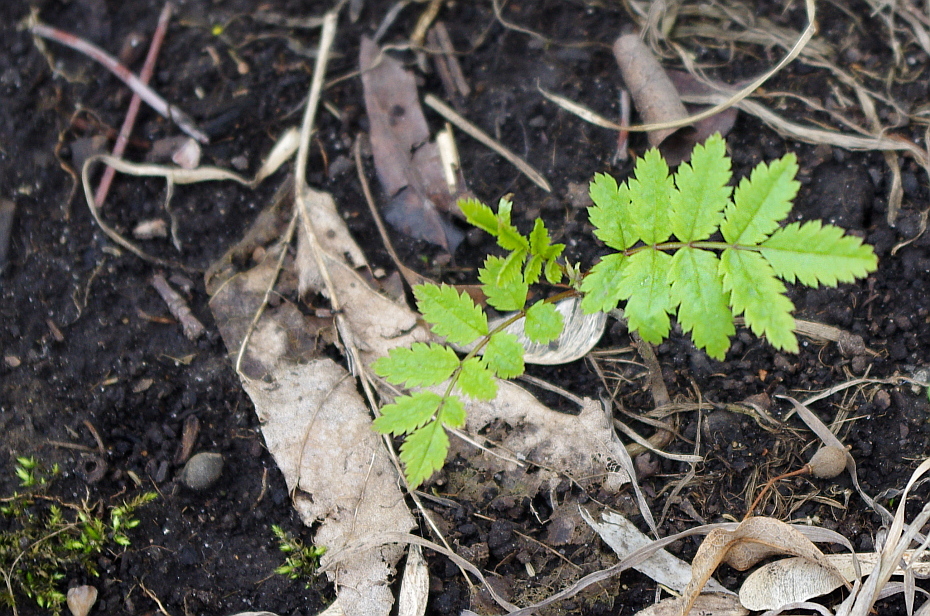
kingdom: Plantae
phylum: Tracheophyta
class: Magnoliopsida
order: Rosales
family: Rosaceae
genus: Sorbus
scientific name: Sorbus aucuparia
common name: Rowan
